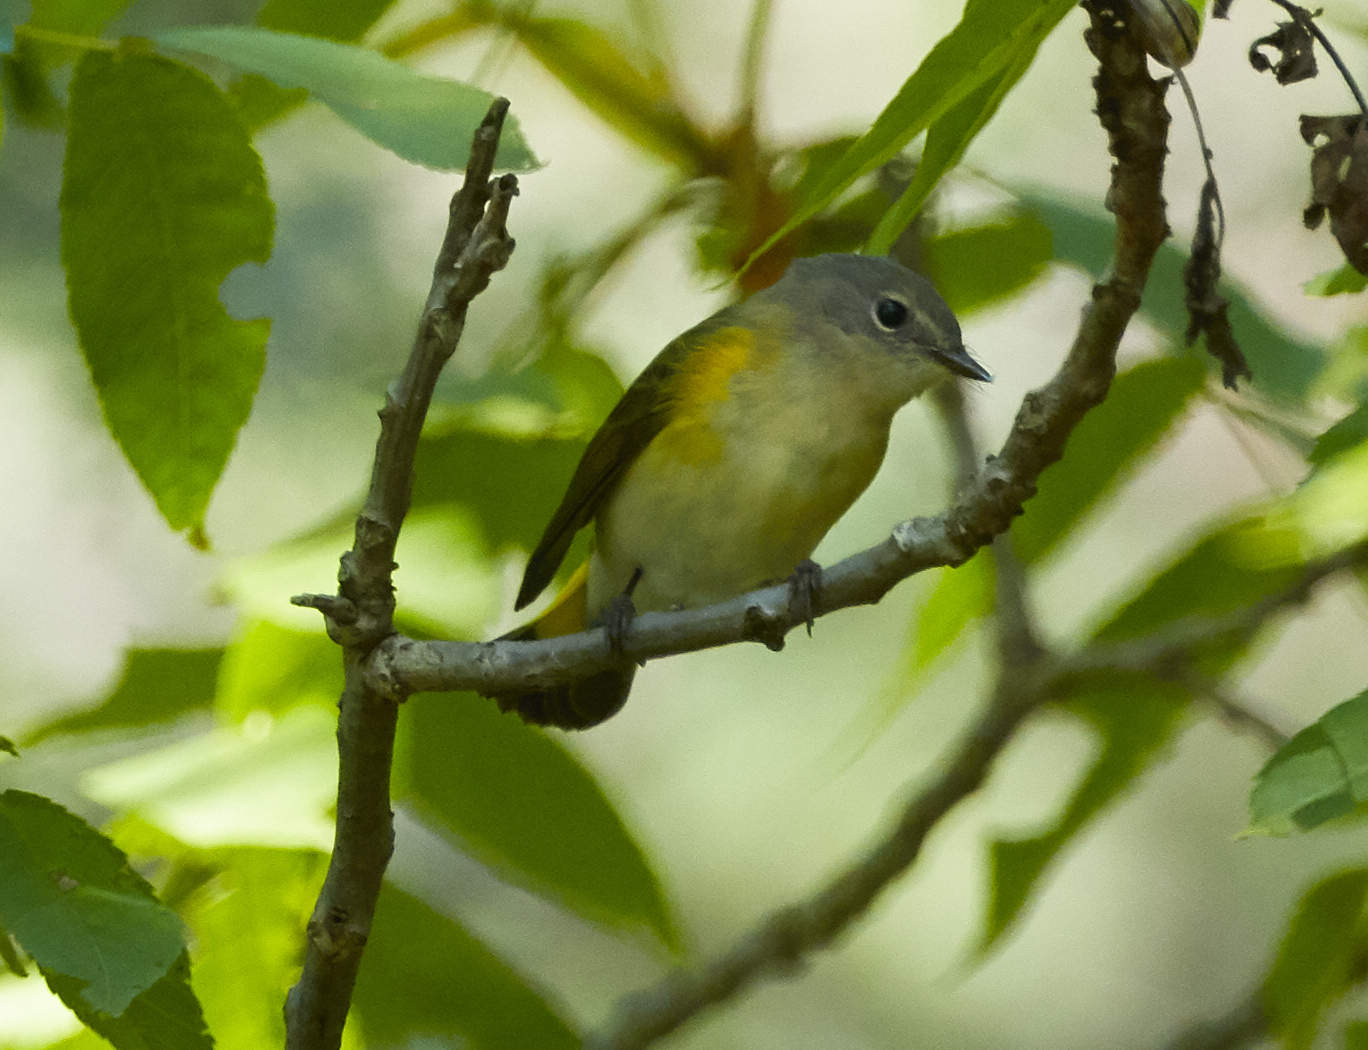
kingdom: Animalia
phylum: Chordata
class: Aves
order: Passeriformes
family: Parulidae
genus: Setophaga
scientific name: Setophaga ruticilla
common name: American redstart
